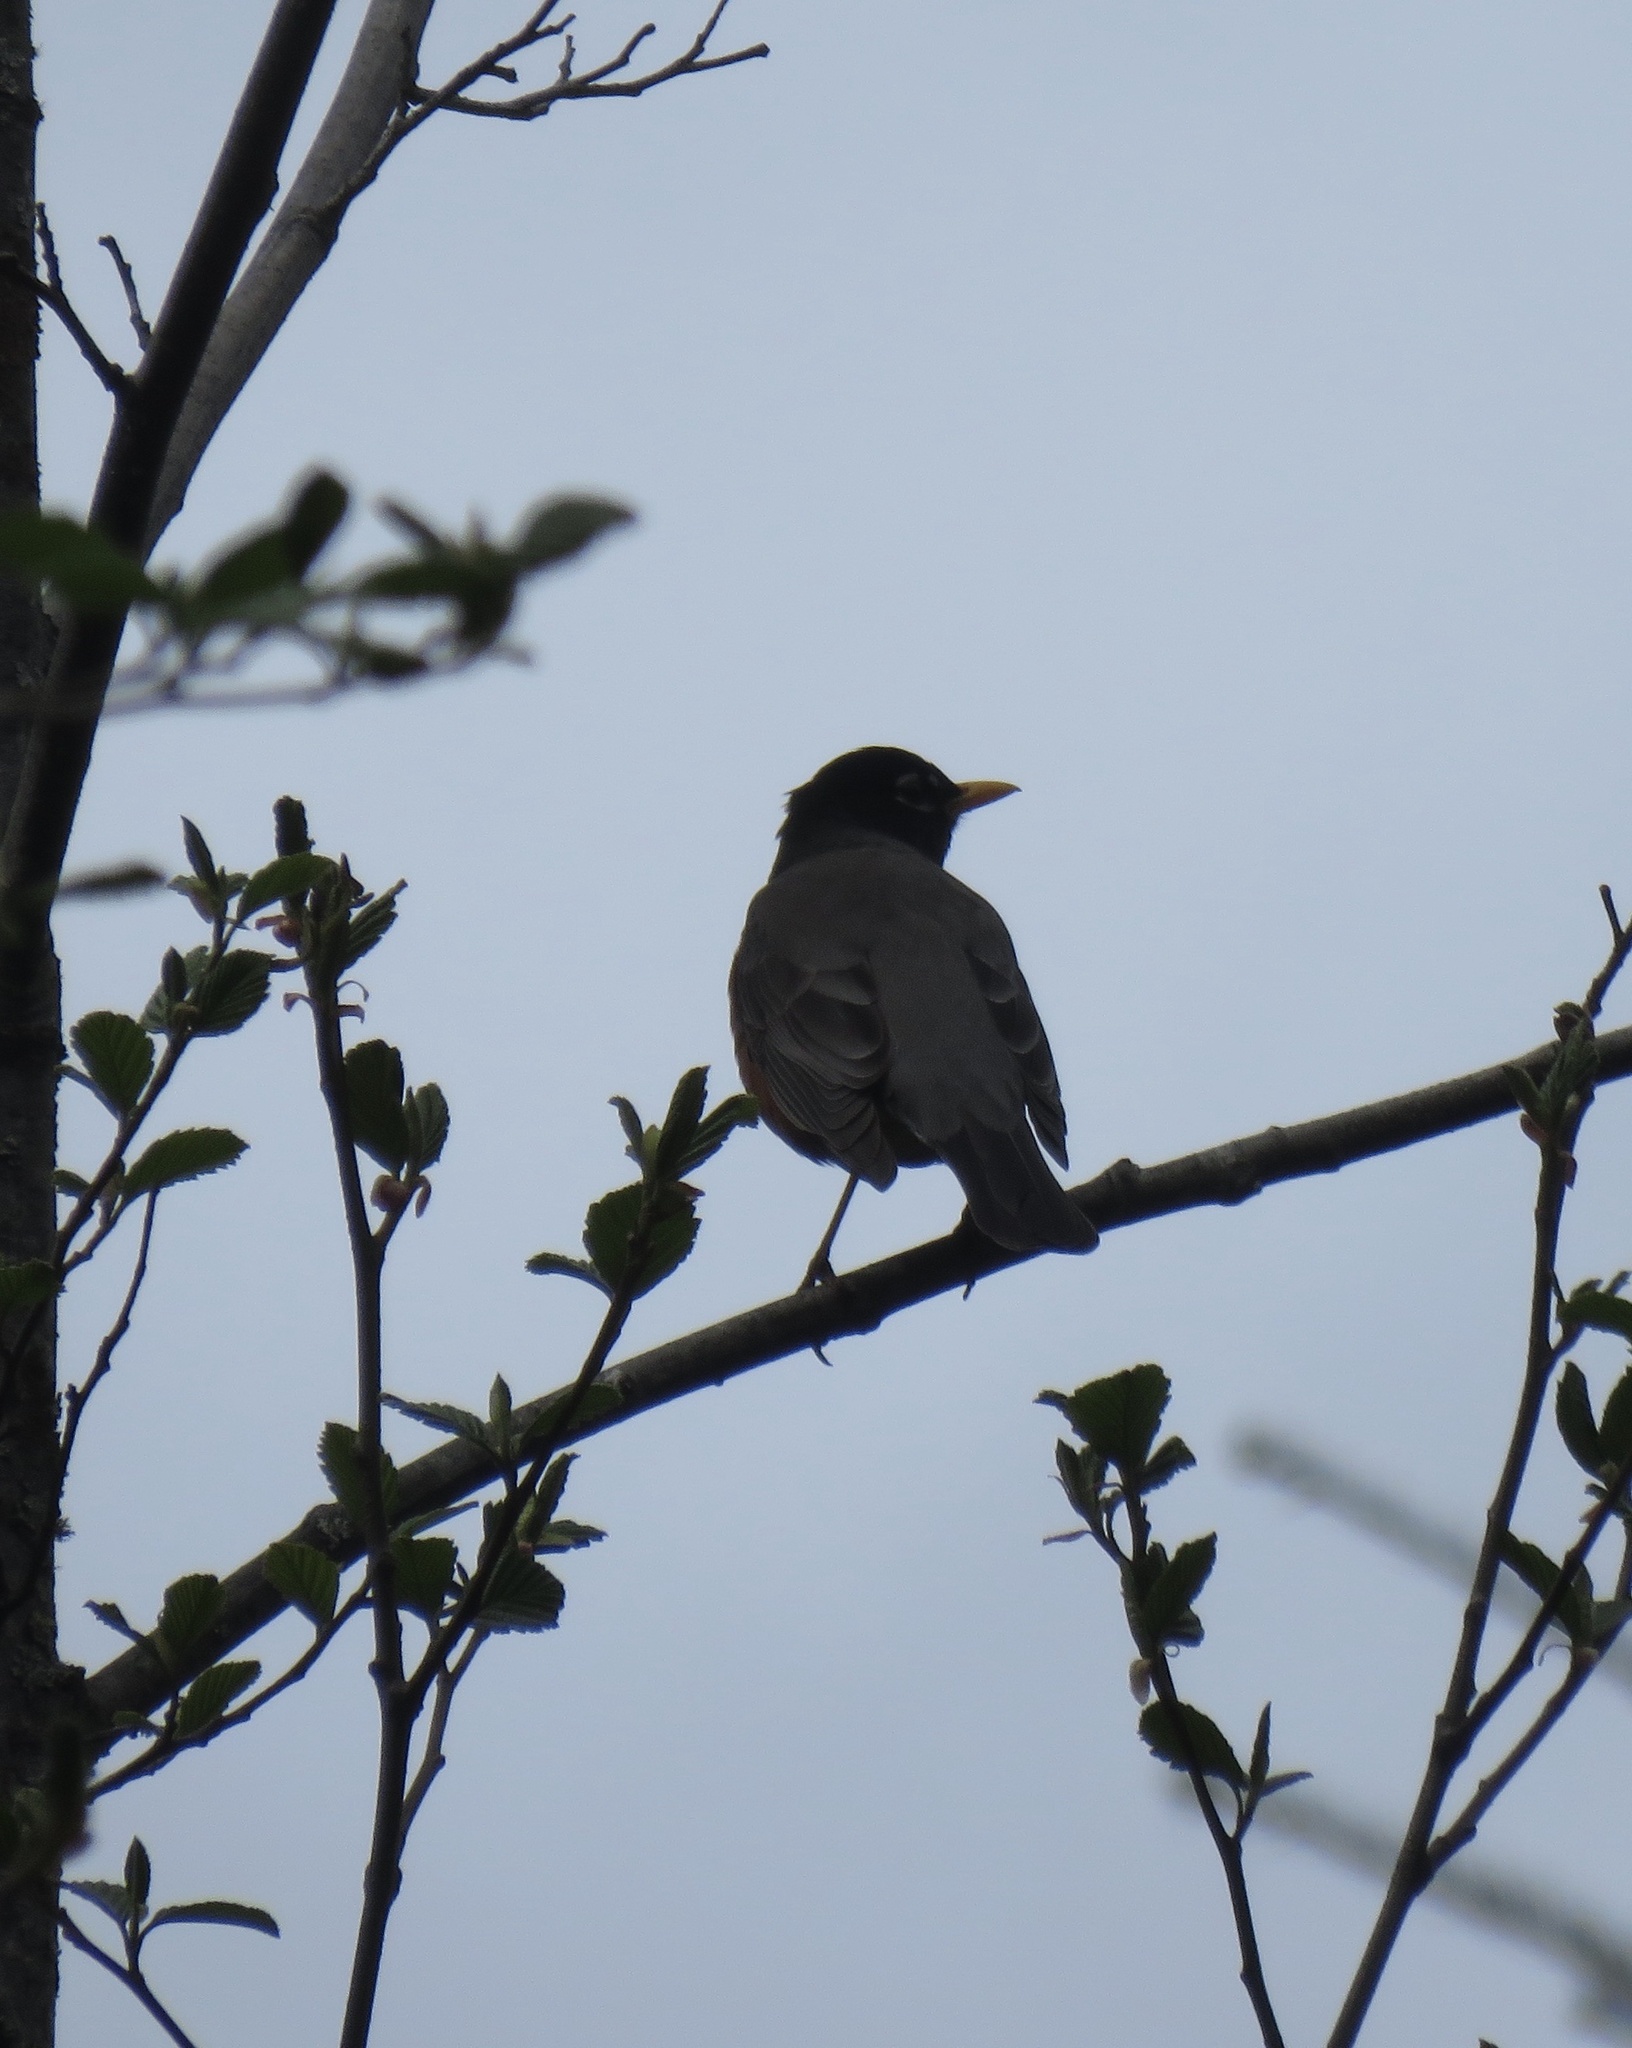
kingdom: Animalia
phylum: Chordata
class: Aves
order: Passeriformes
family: Turdidae
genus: Turdus
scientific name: Turdus migratorius
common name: American robin
